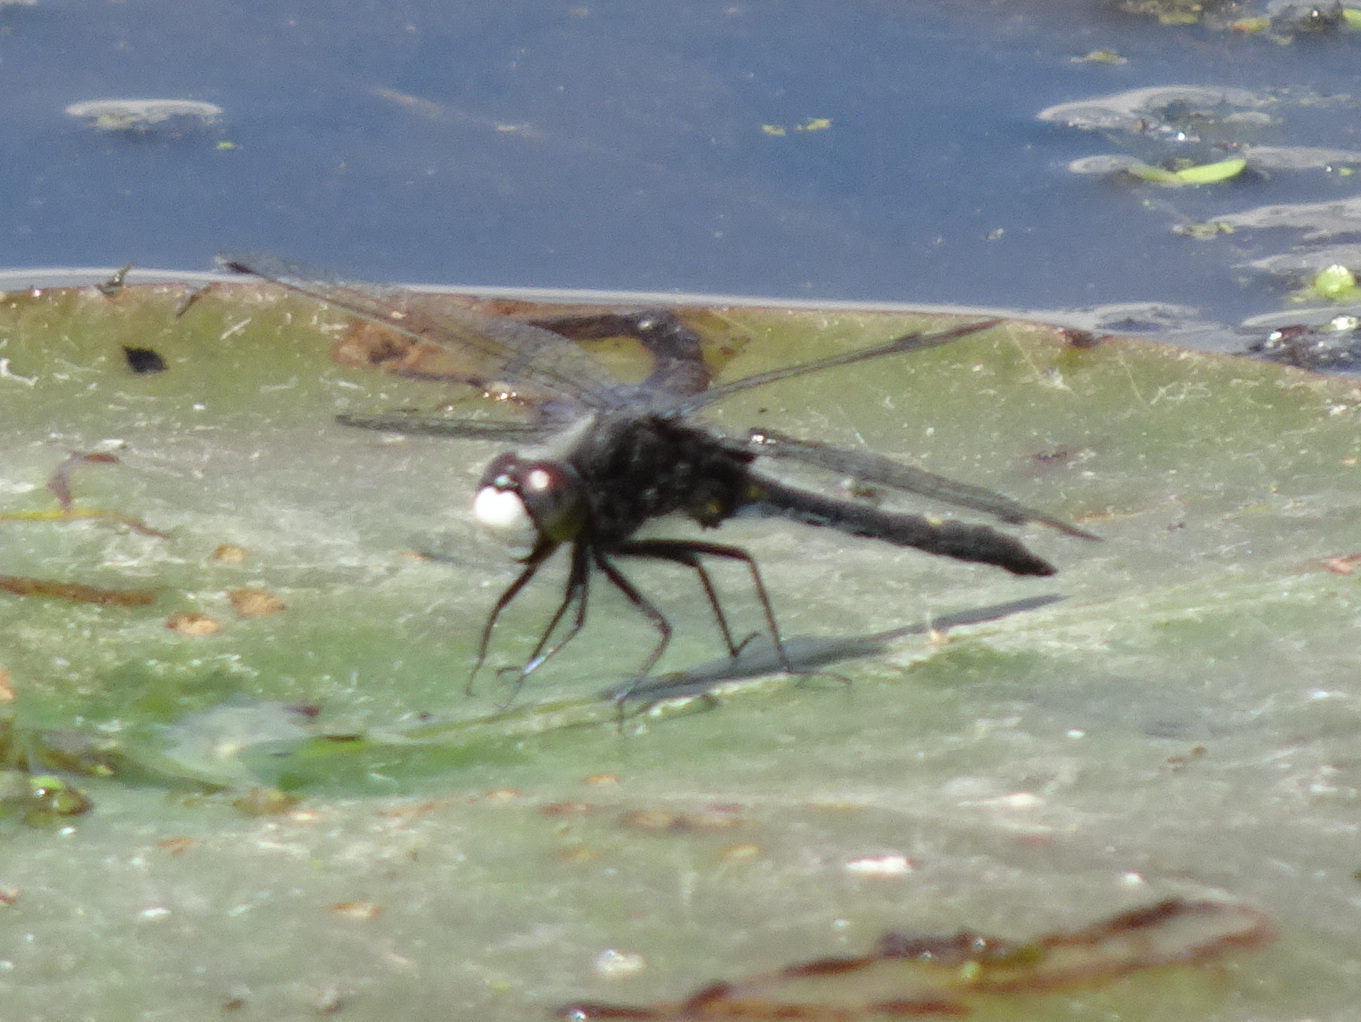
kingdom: Animalia
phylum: Arthropoda
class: Insecta
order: Odonata
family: Libellulidae
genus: Leucorrhinia
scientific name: Leucorrhinia intacta
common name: Dot-tailed whiteface
